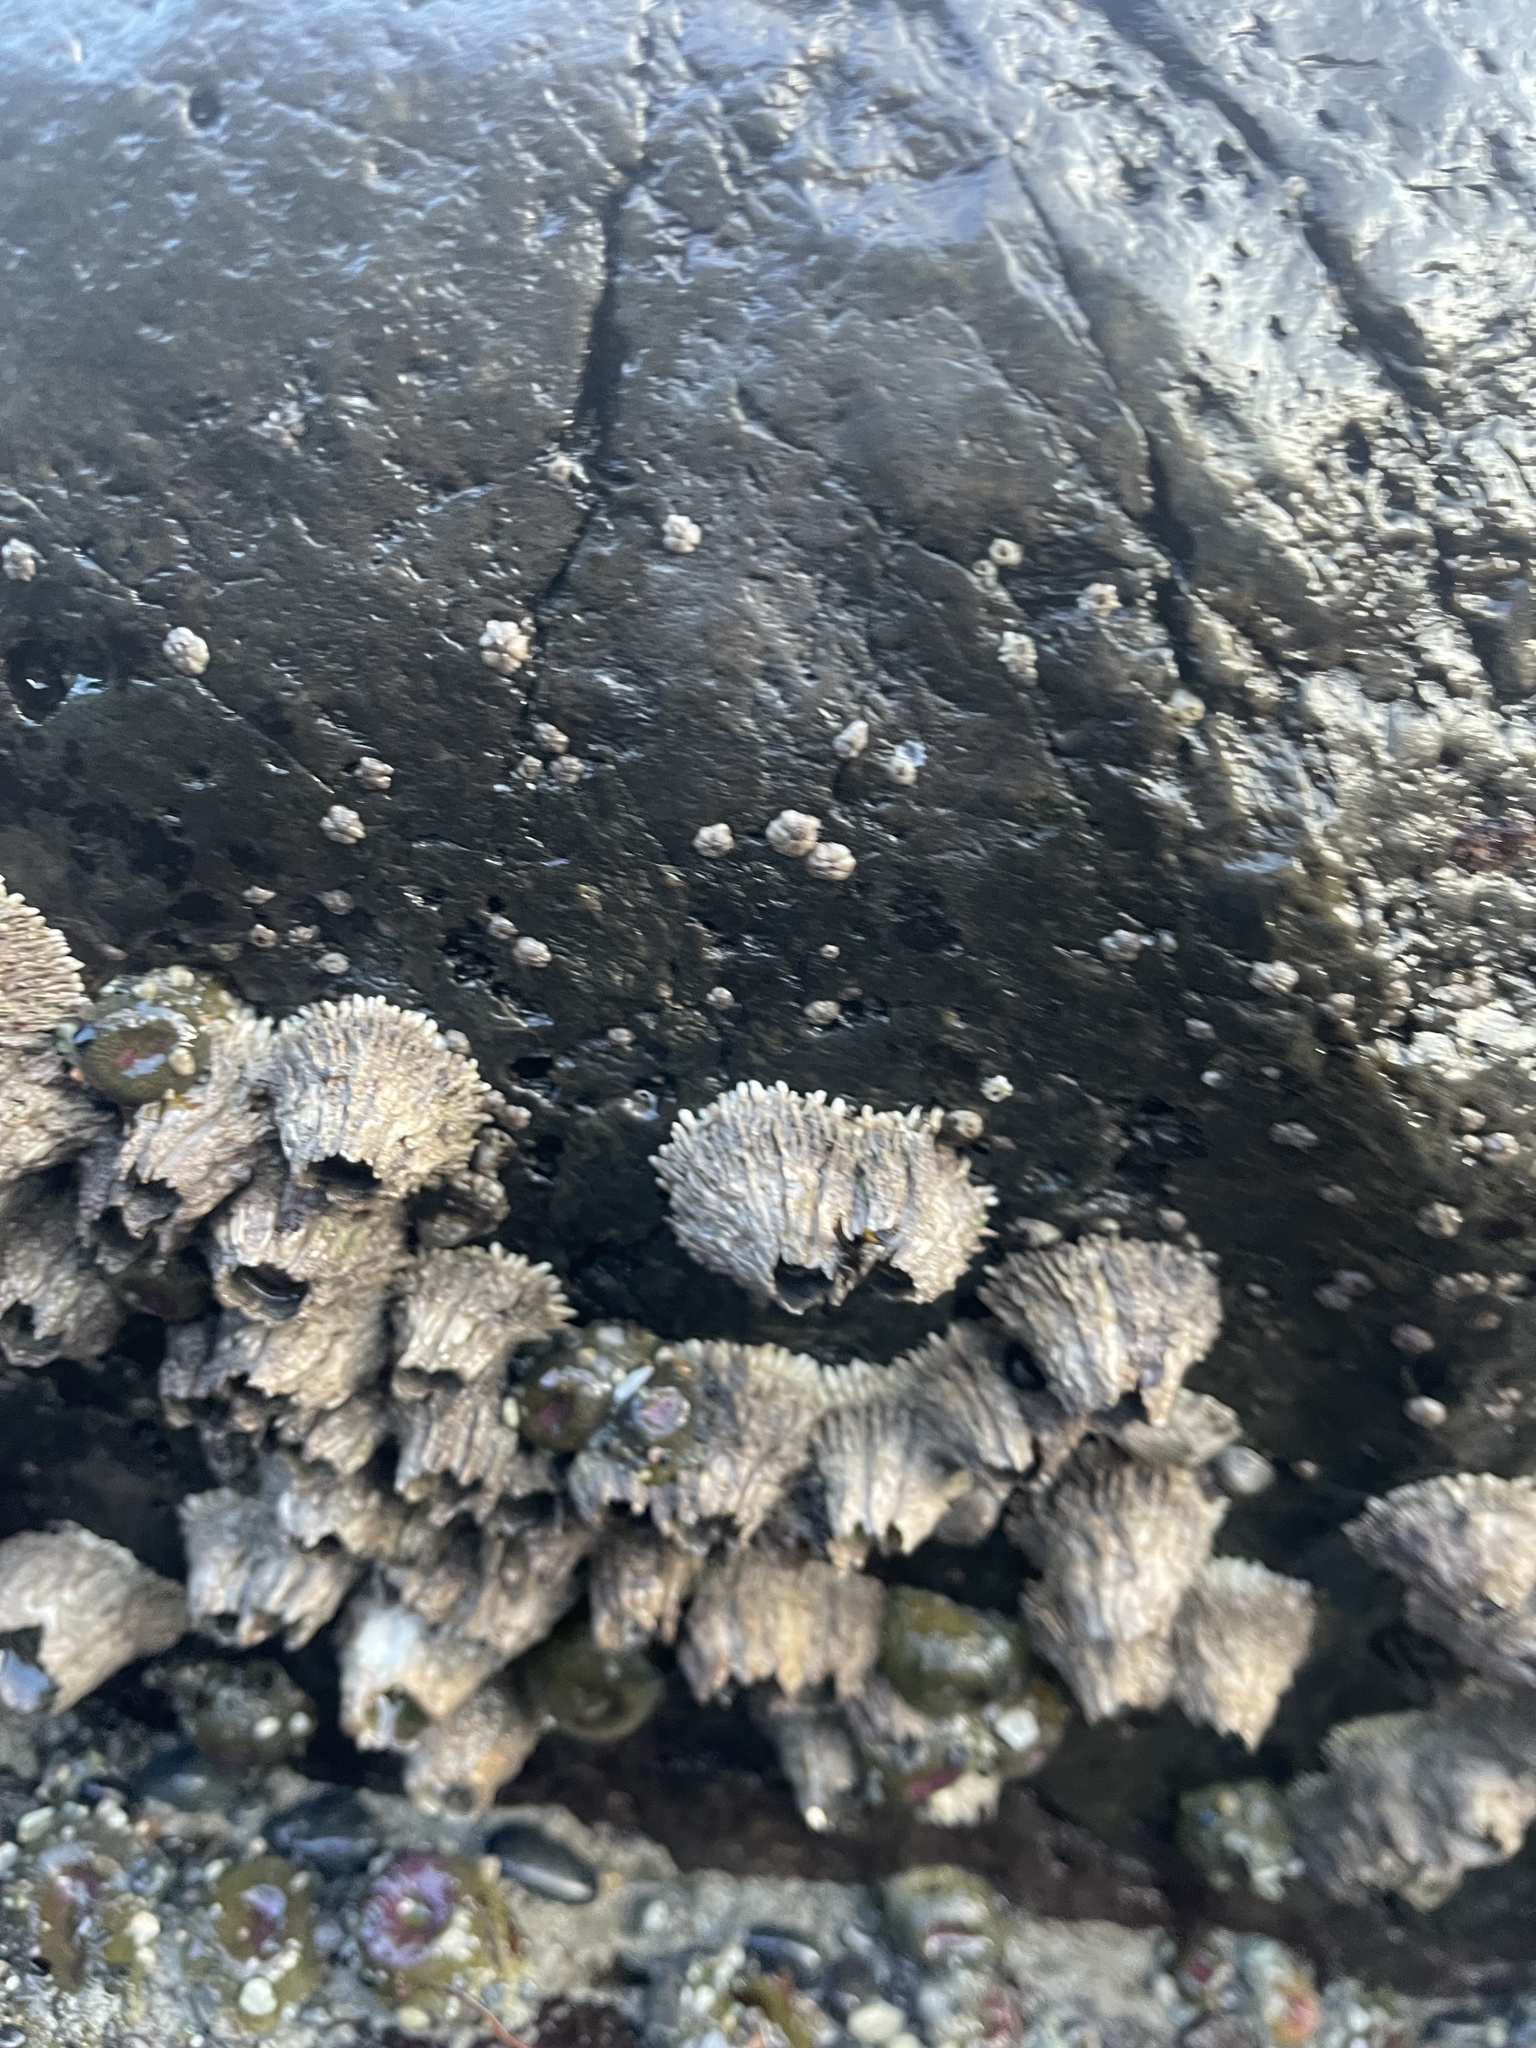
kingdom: Animalia
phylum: Arthropoda
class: Maxillopoda
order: Sessilia
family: Archaeobalanidae
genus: Semibalanus
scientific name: Semibalanus cariosus
